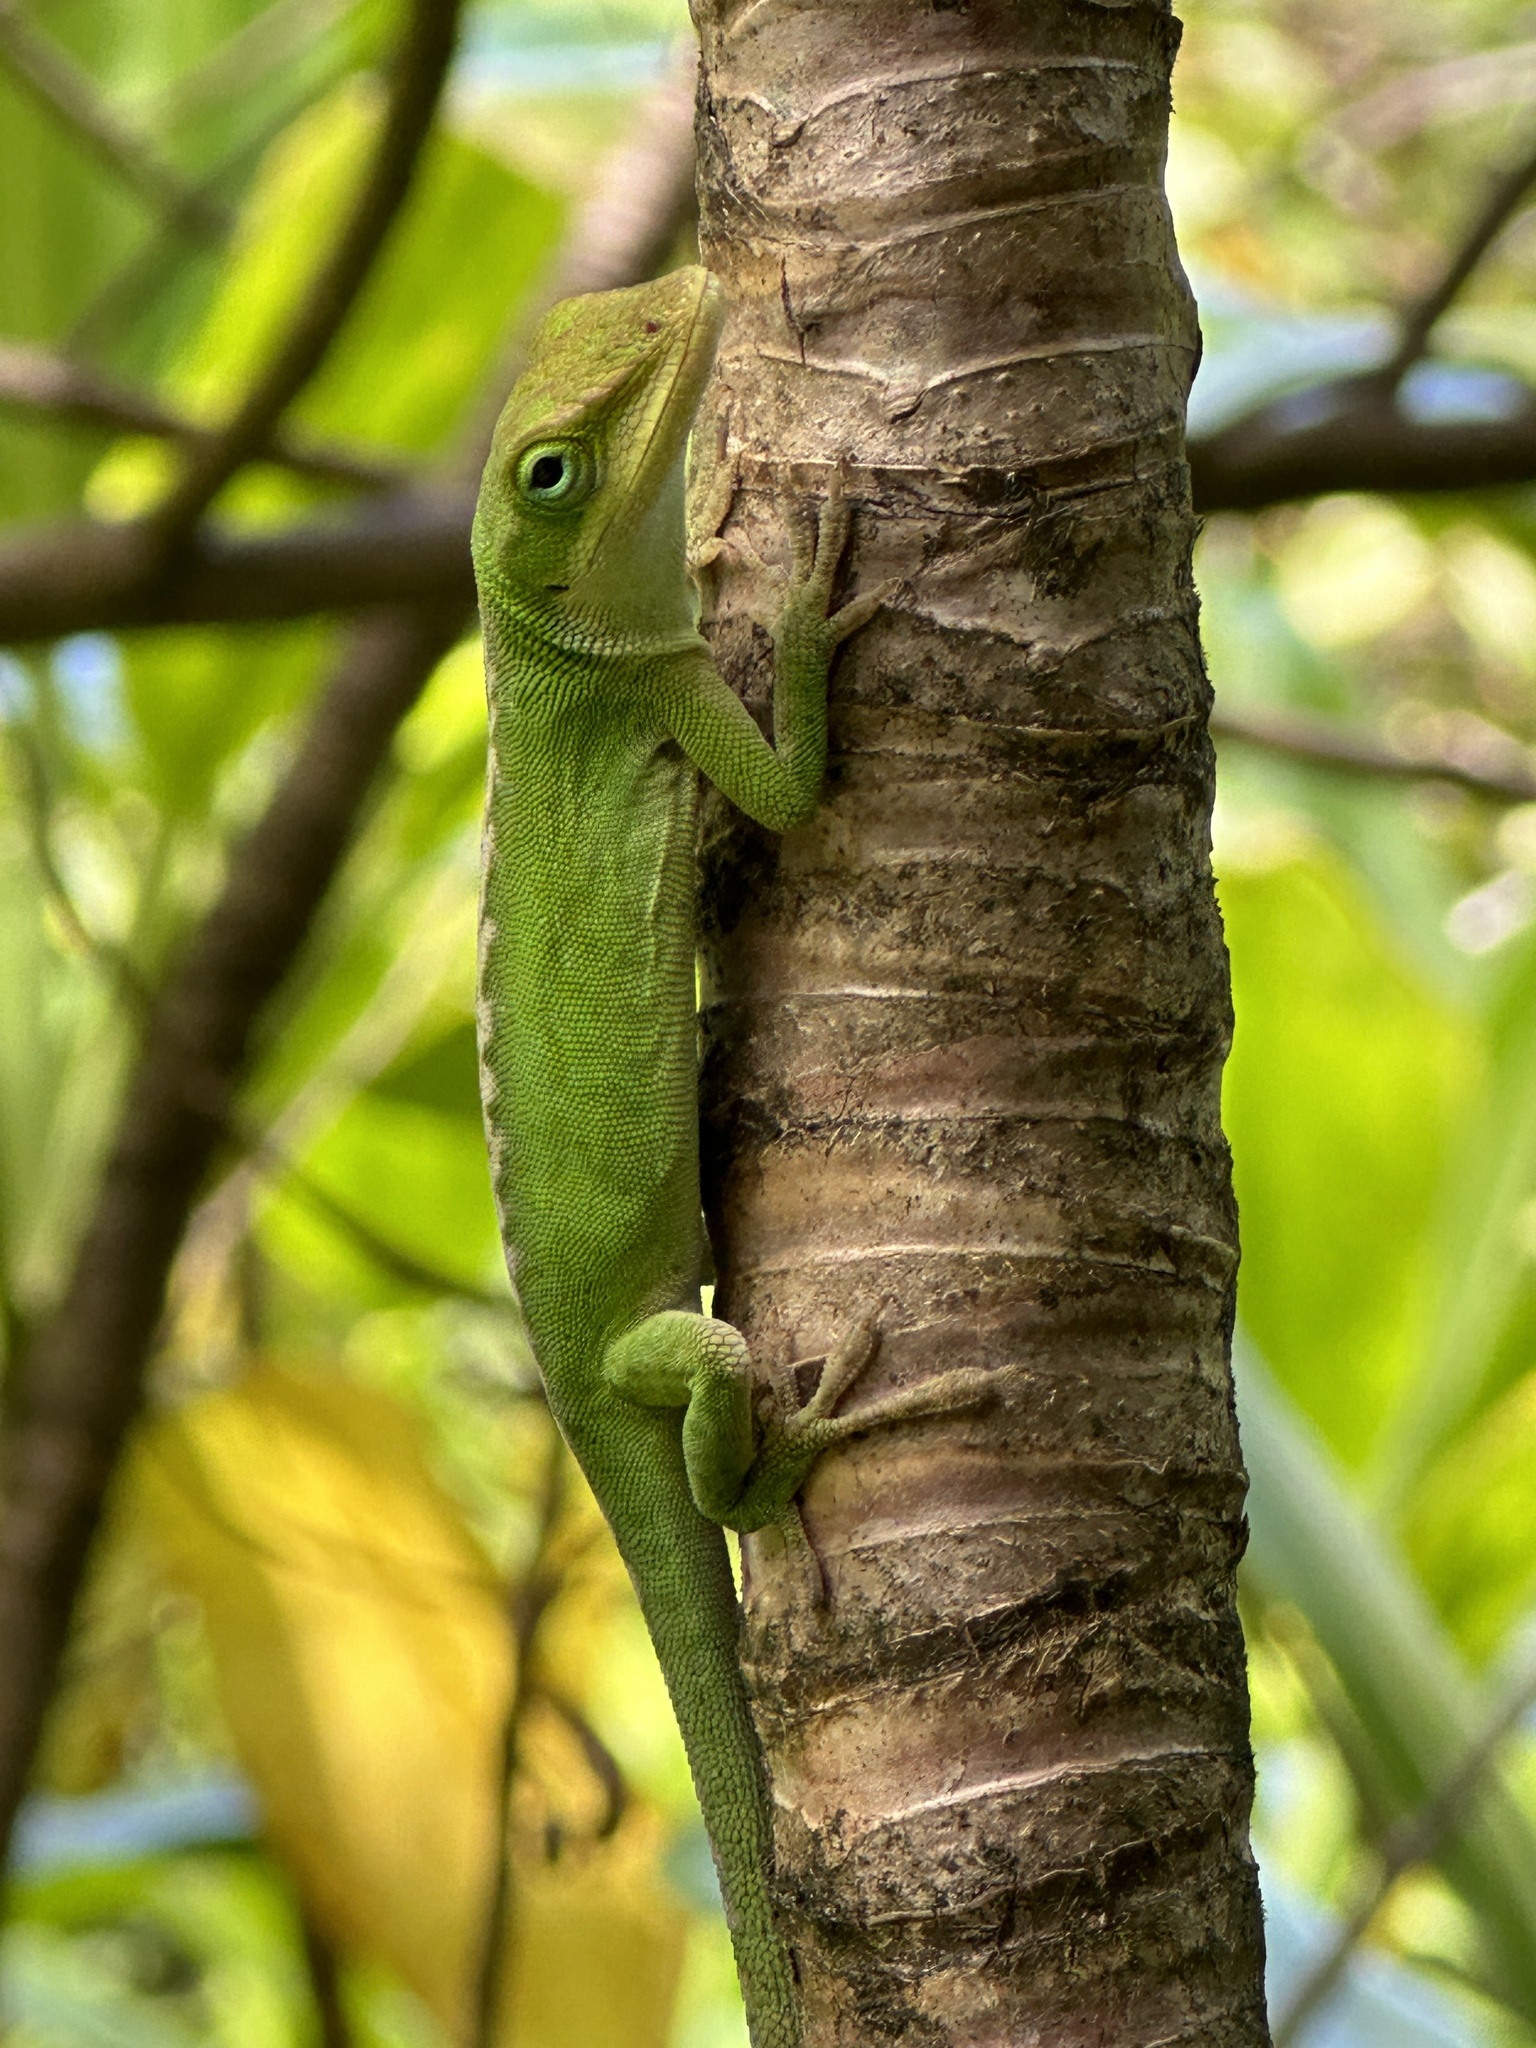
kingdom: Animalia
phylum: Chordata
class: Squamata
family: Dactyloidae
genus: Anolis
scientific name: Anolis carolinensis
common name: Green anole
